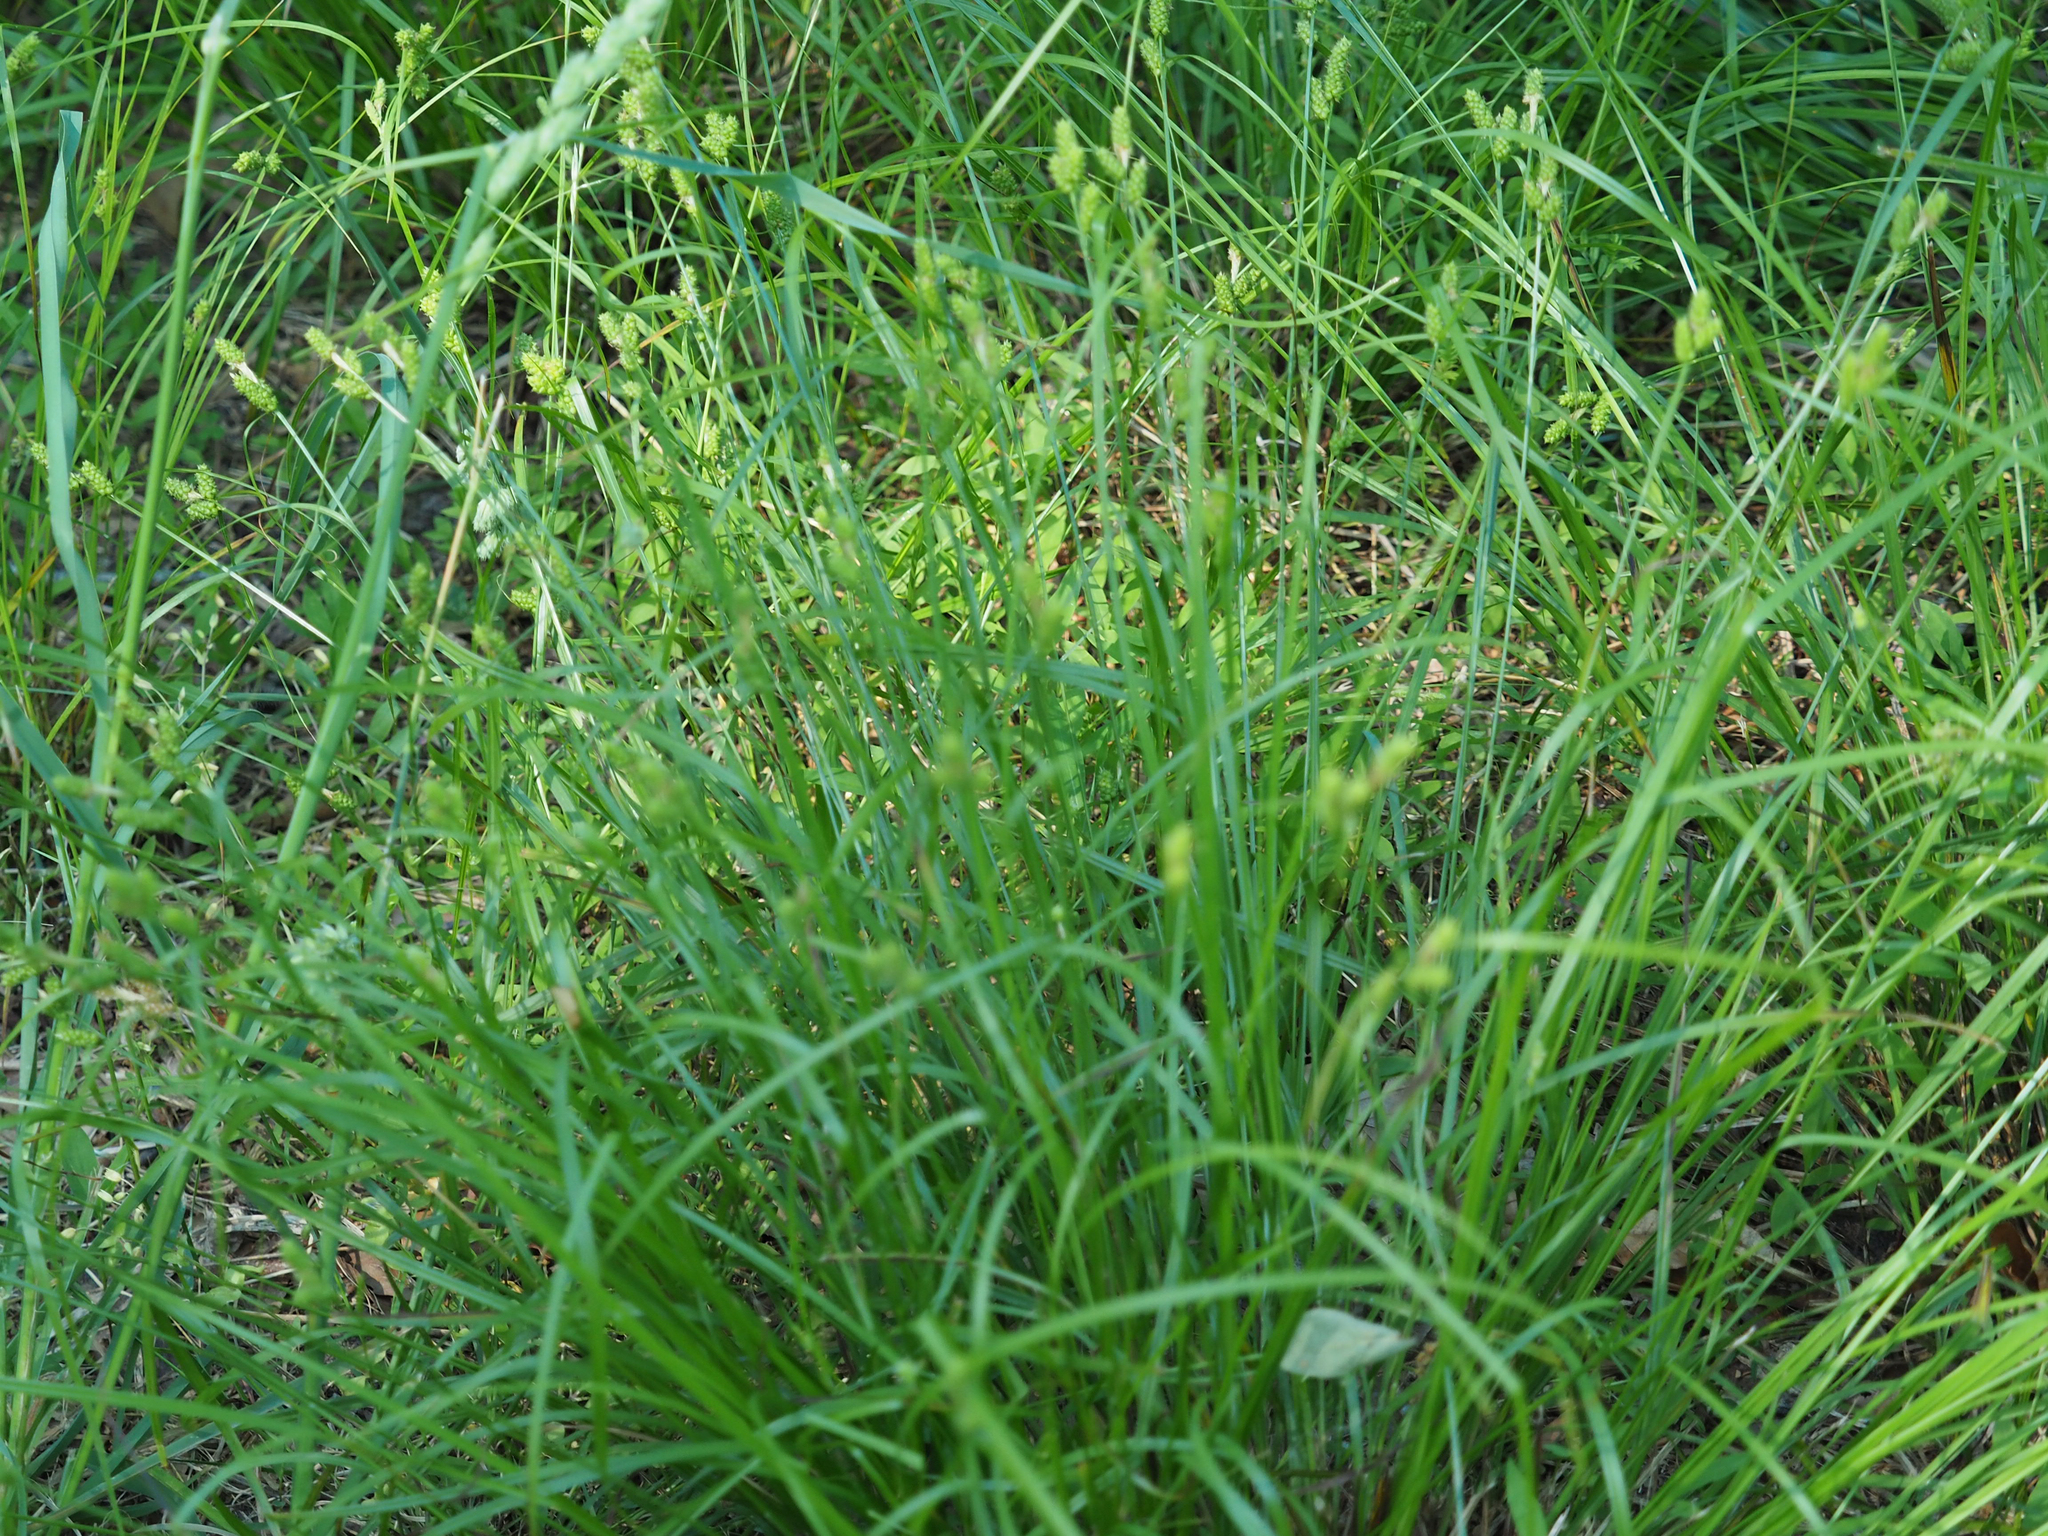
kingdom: Plantae
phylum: Tracheophyta
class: Liliopsida
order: Poales
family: Cyperaceae
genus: Carex
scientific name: Carex granularis
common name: Granular sedge
